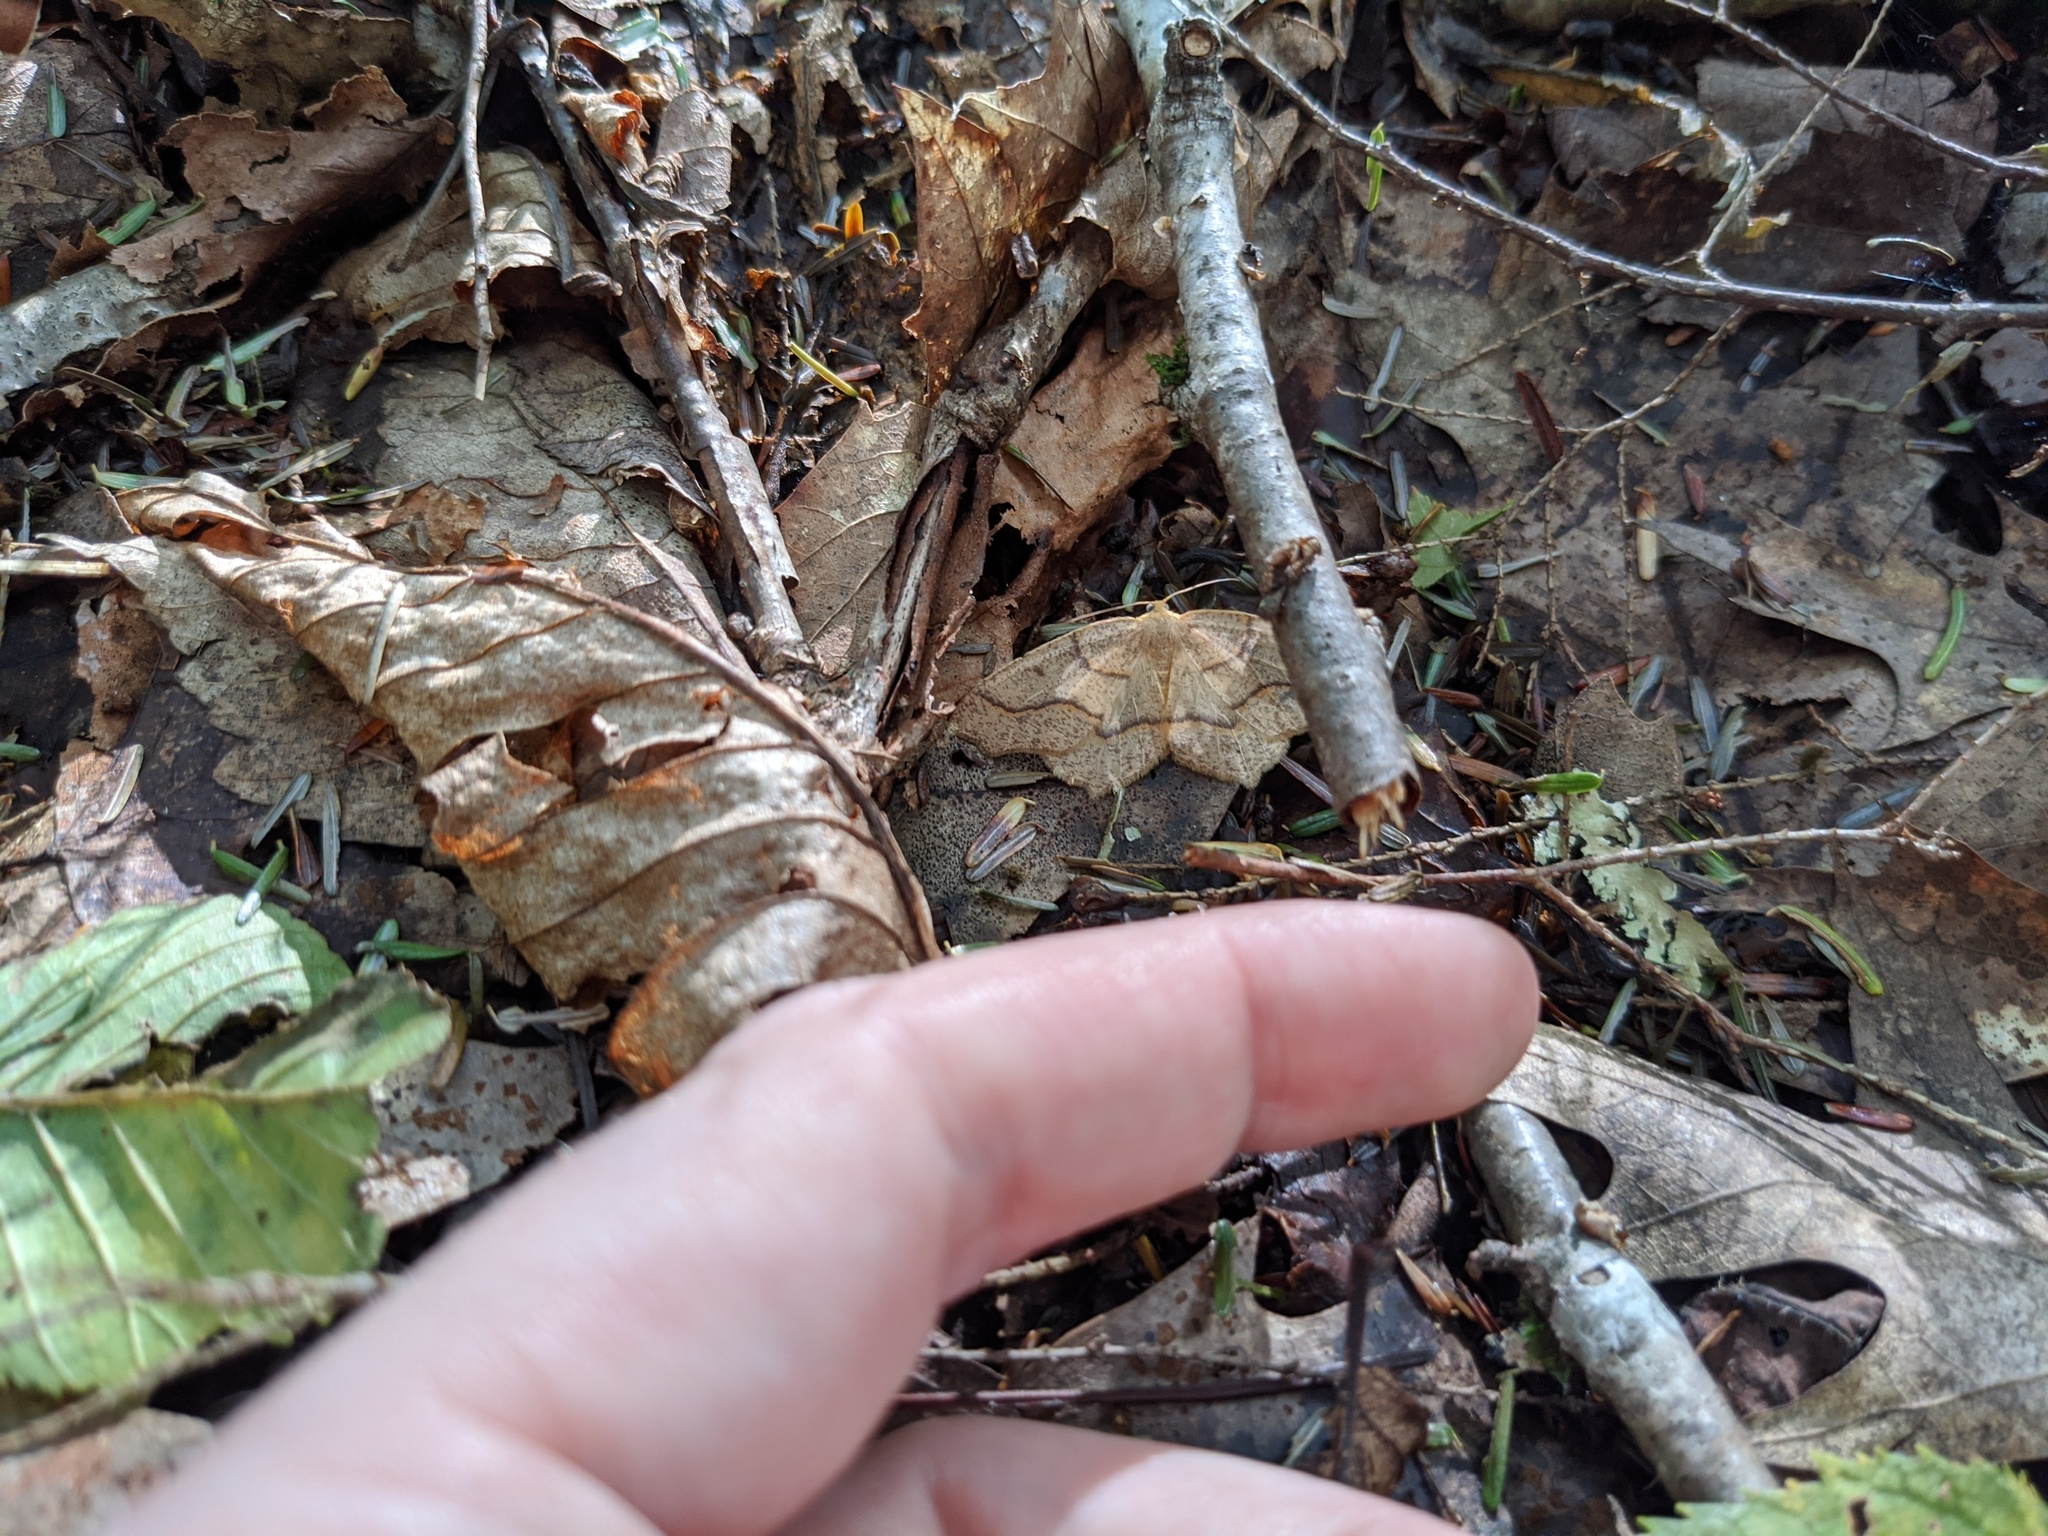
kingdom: Animalia
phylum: Arthropoda
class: Insecta
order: Lepidoptera
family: Geometridae
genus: Lambdina
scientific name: Lambdina fiscellaria
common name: Hemlock looper
